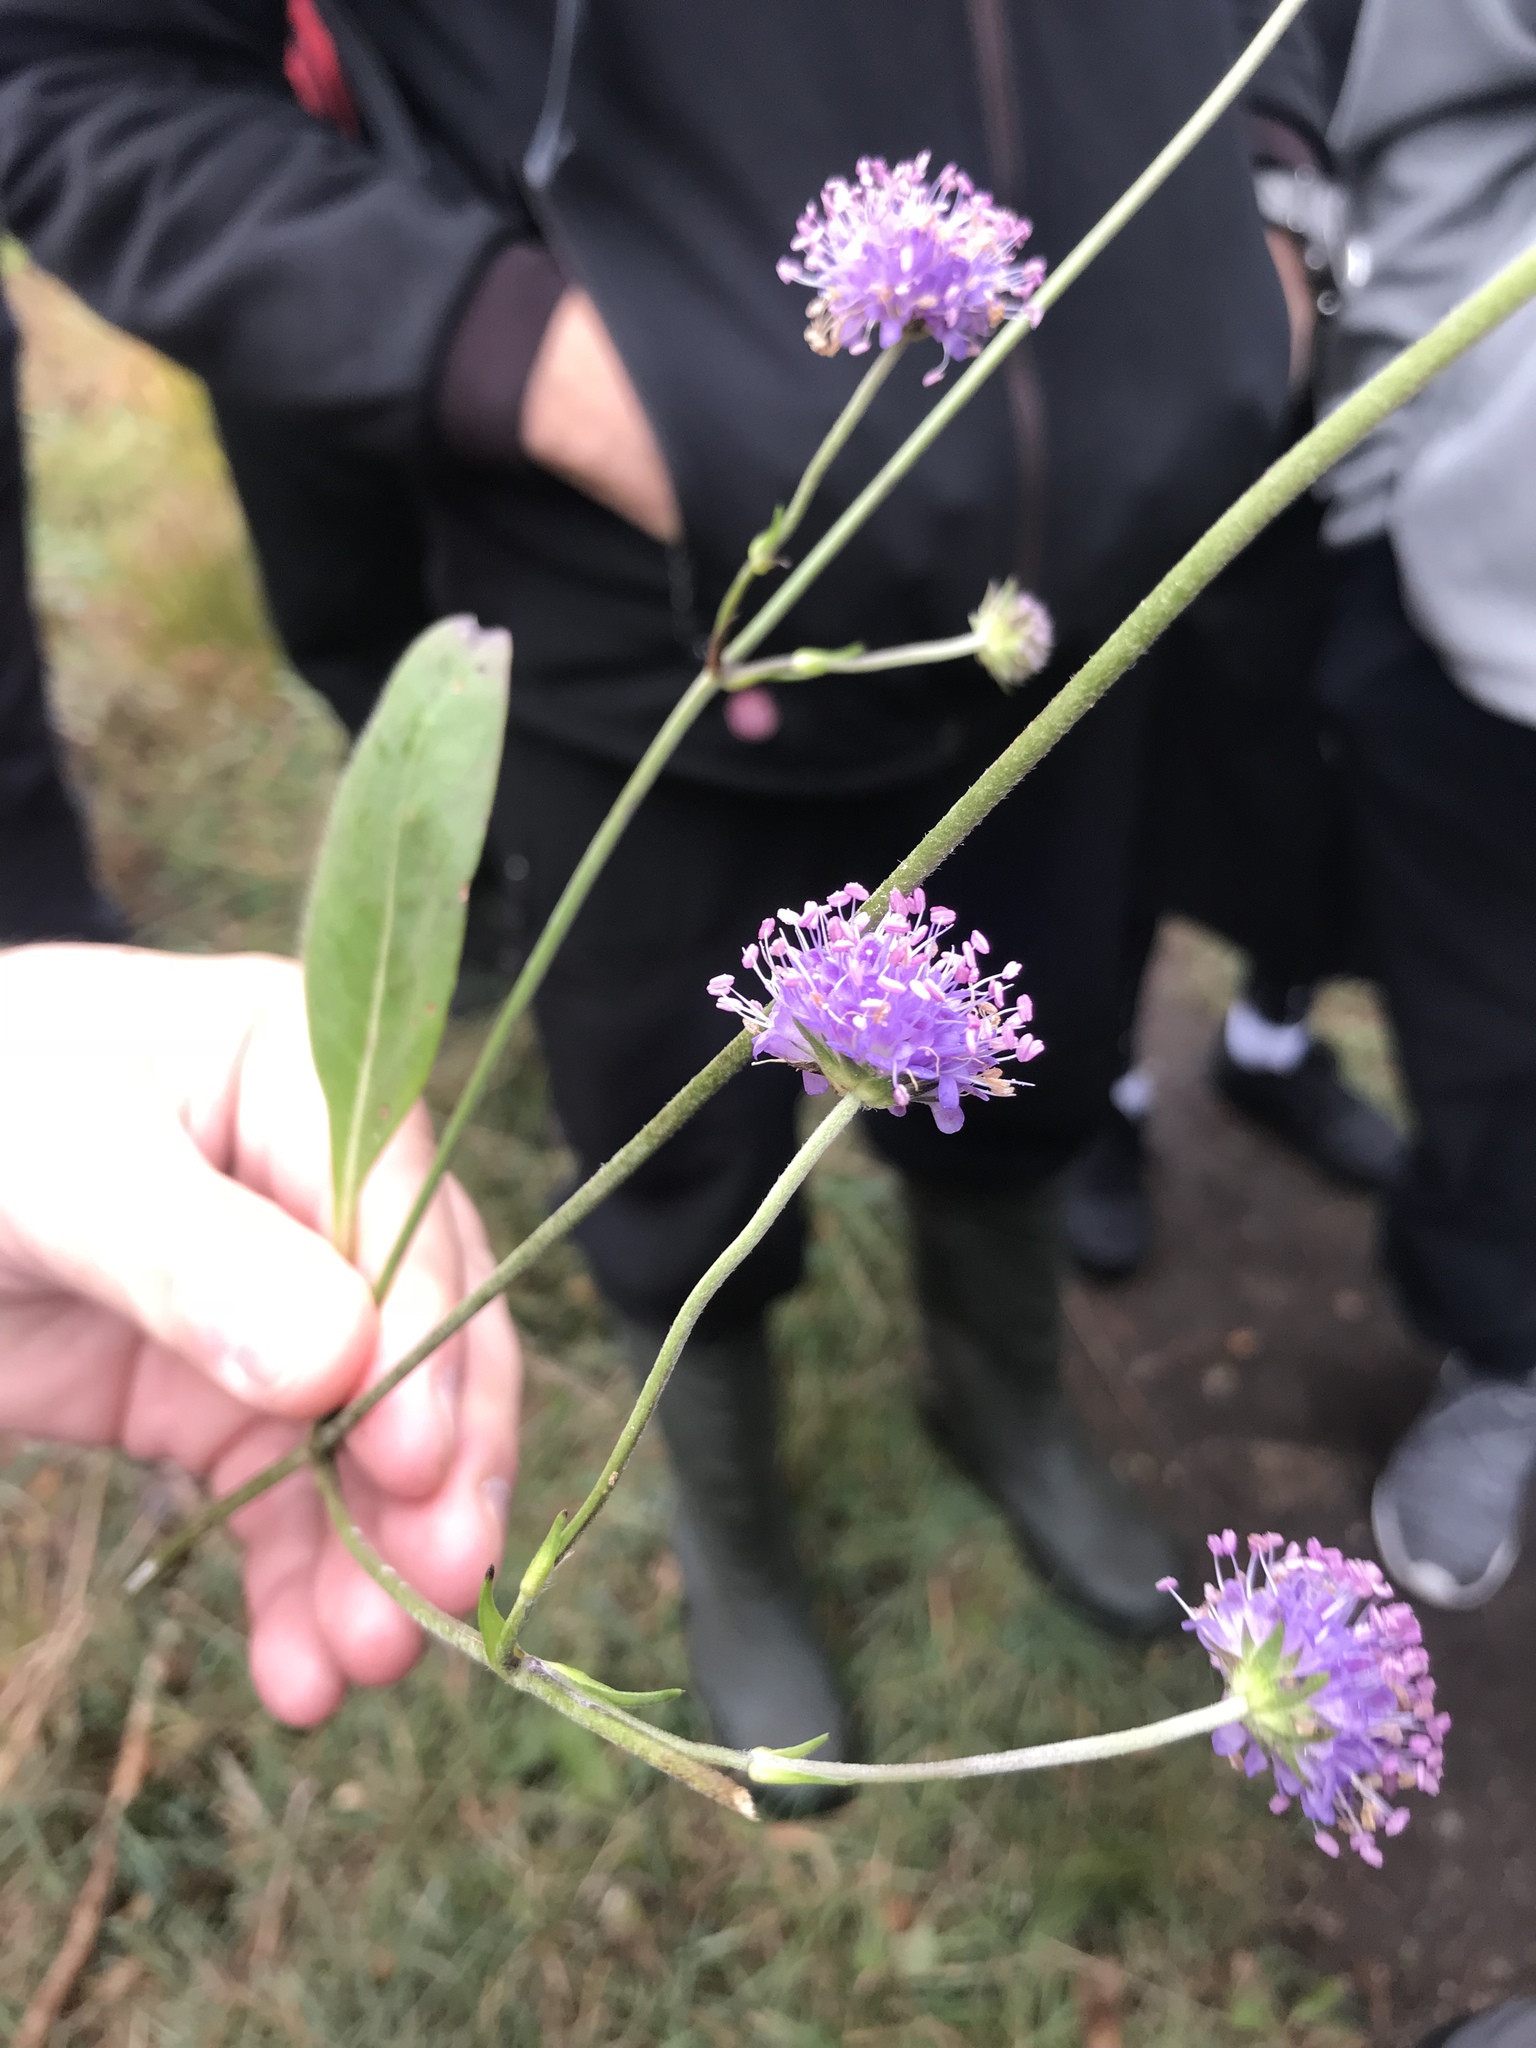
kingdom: Plantae
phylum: Tracheophyta
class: Magnoliopsida
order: Dipsacales
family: Caprifoliaceae
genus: Succisa
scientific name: Succisa pratensis
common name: Devil's-bit
